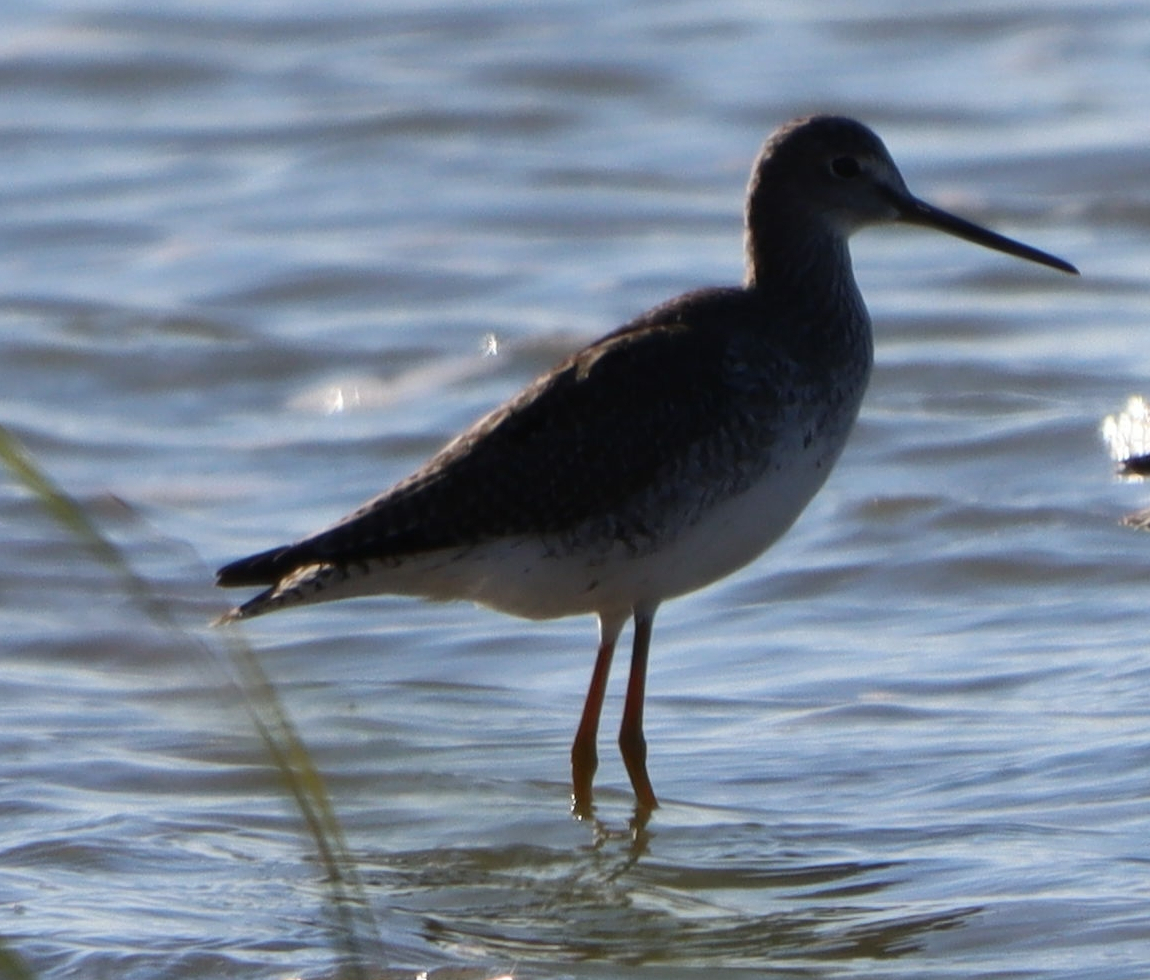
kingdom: Animalia
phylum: Chordata
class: Aves
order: Charadriiformes
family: Scolopacidae
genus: Tringa
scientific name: Tringa melanoleuca
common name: Greater yellowlegs
